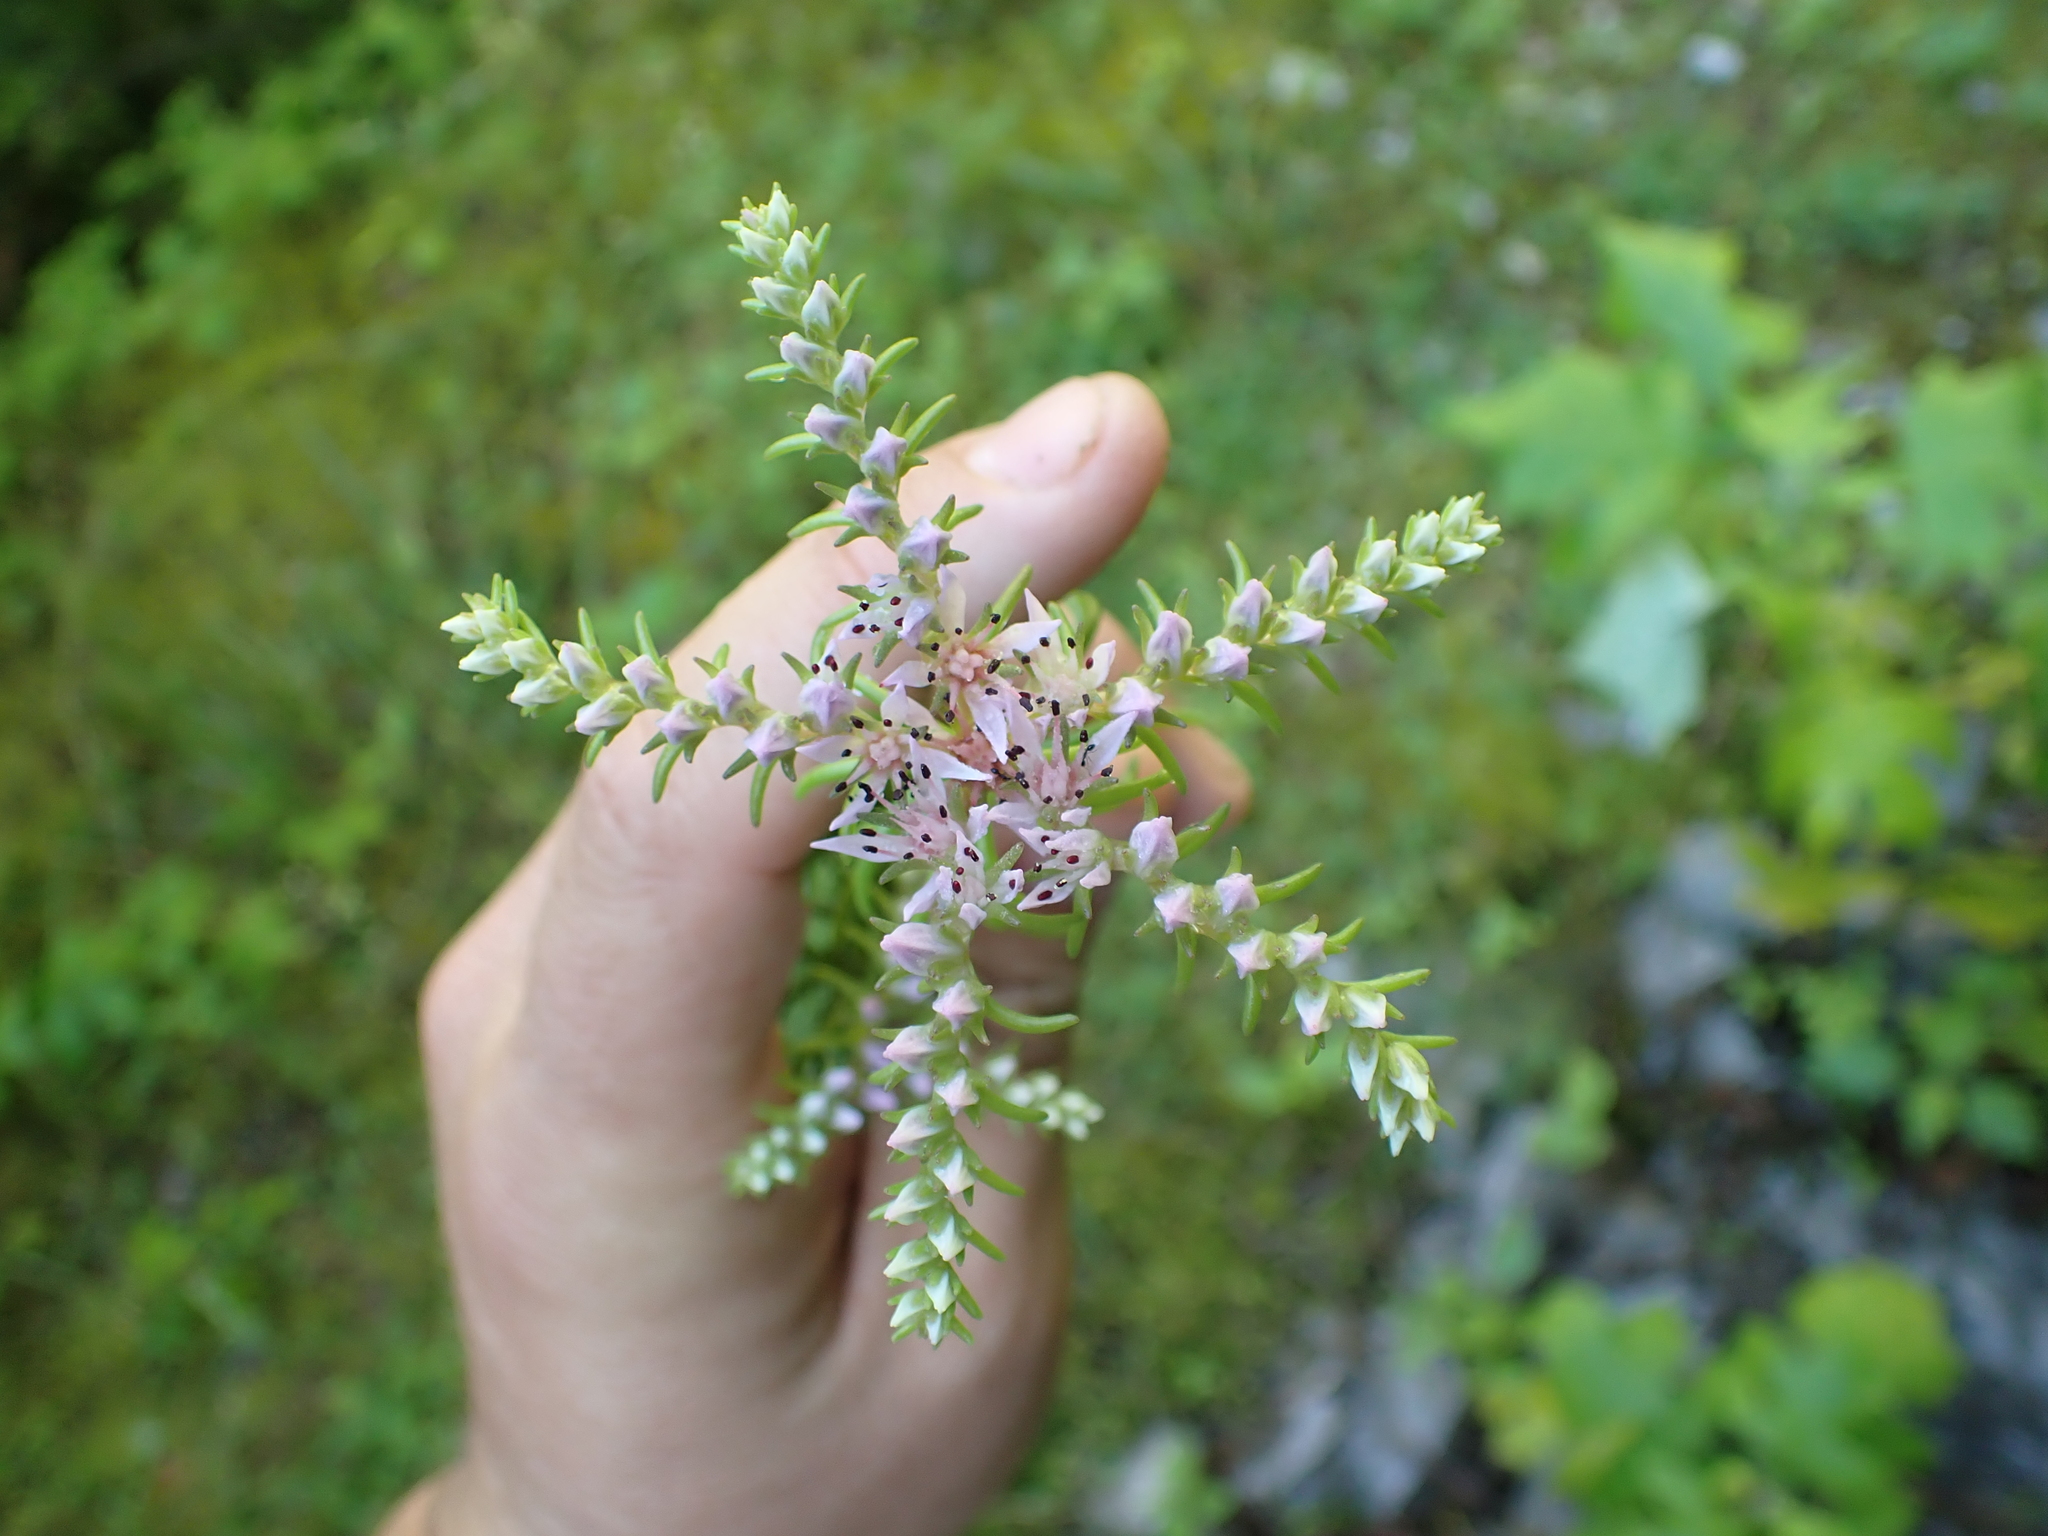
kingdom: Plantae
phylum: Tracheophyta
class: Magnoliopsida
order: Saxifragales
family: Crassulaceae
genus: Sedum
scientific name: Sedum pulchellum
